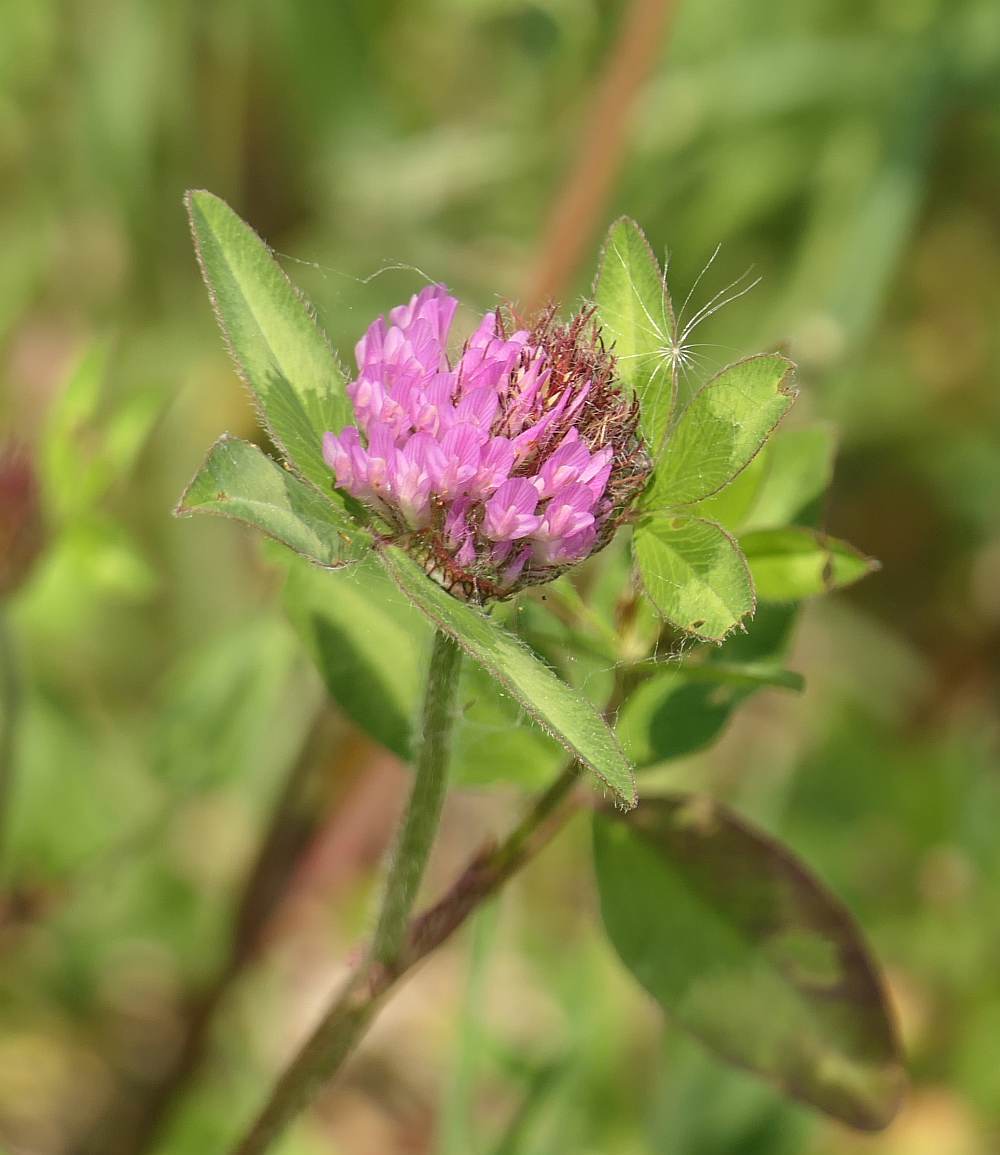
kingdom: Plantae
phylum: Tracheophyta
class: Magnoliopsida
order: Fabales
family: Fabaceae
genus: Trifolium
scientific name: Trifolium pratense
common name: Red clover
